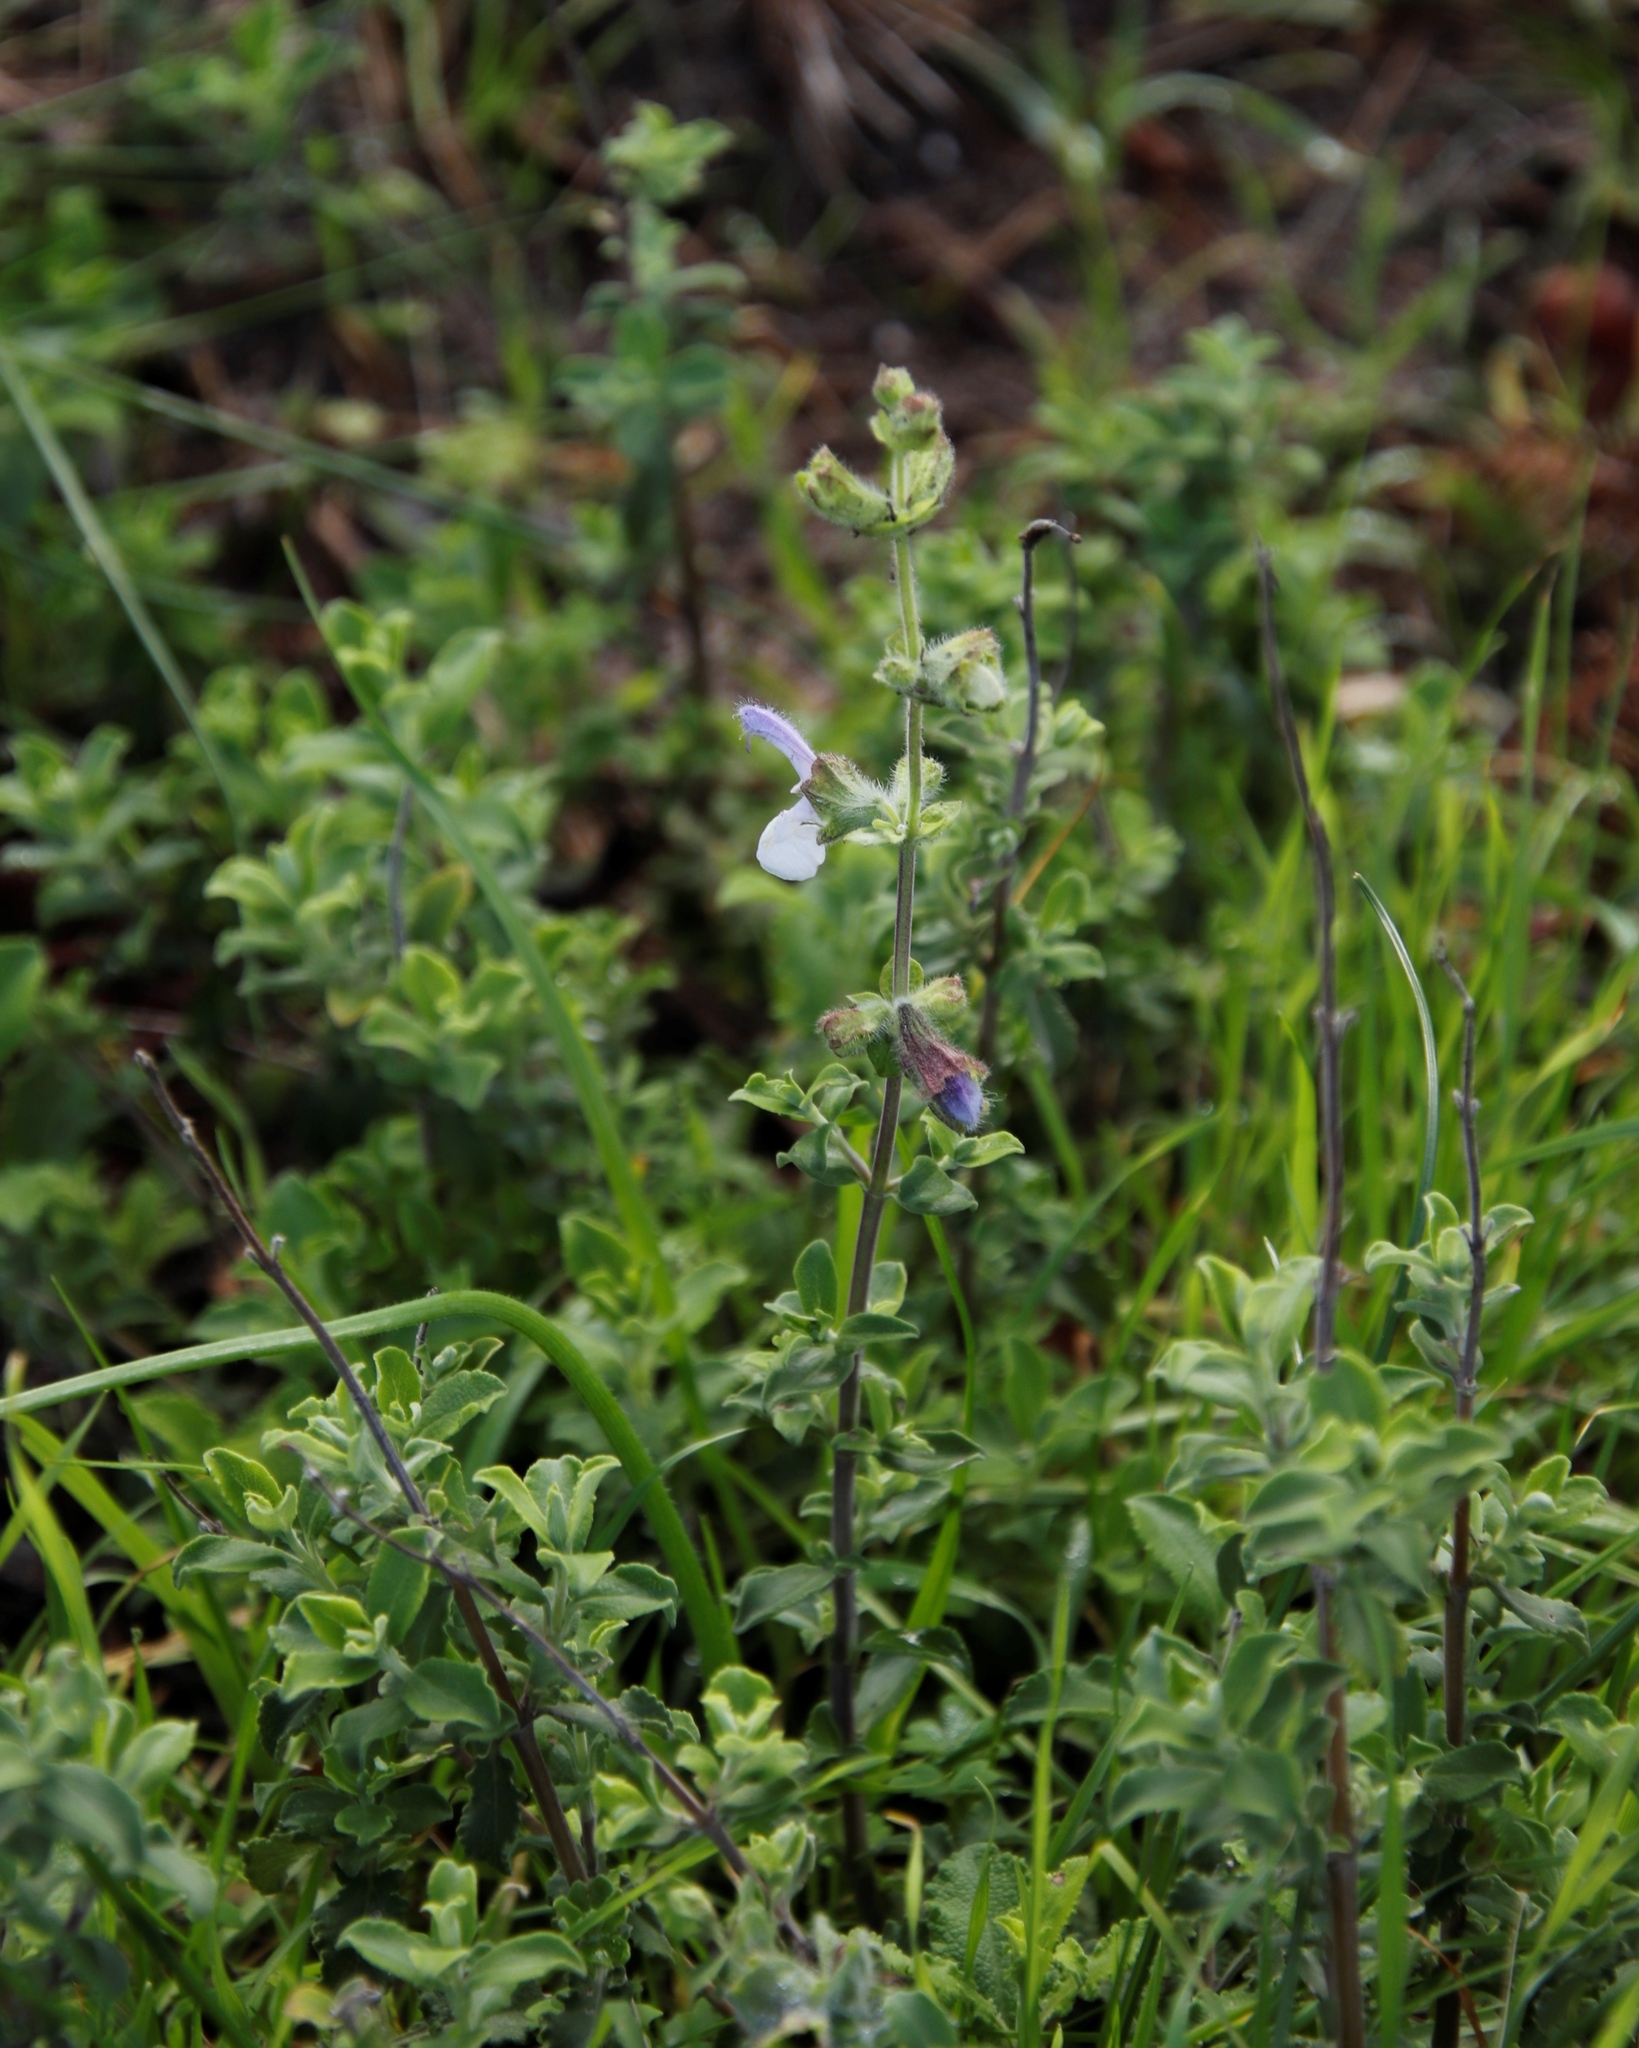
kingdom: Plantae
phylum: Tracheophyta
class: Magnoliopsida
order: Lamiales
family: Lamiaceae
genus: Salvia
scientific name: Salvia africana
